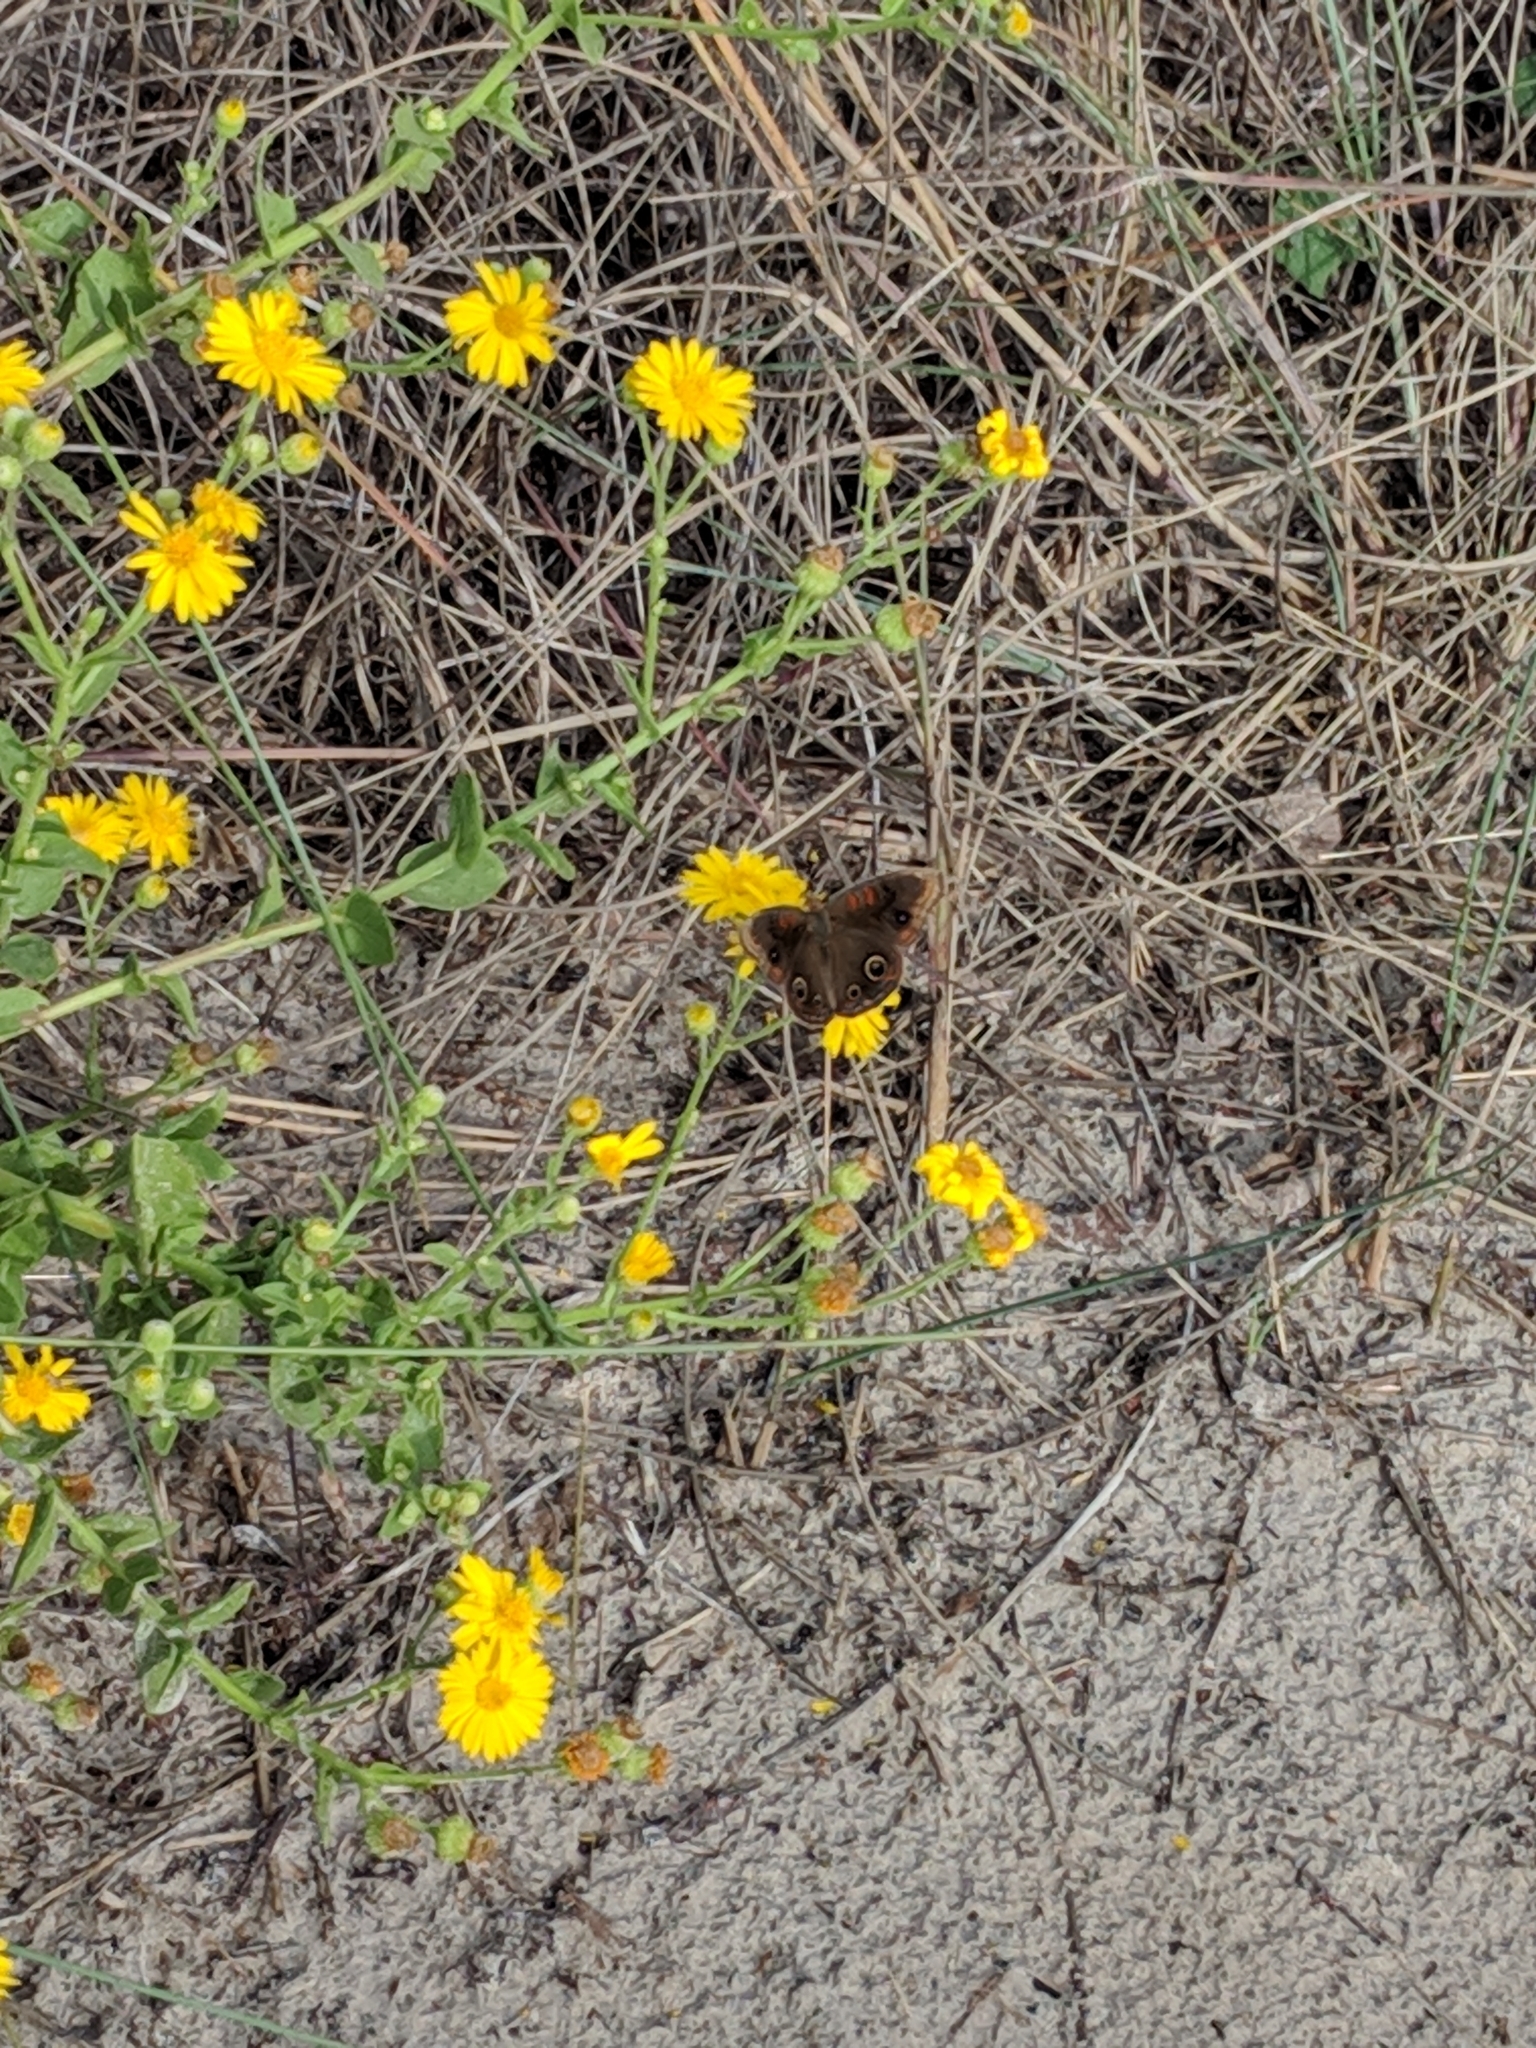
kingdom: Animalia
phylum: Arthropoda
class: Insecta
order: Lepidoptera
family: Nymphalidae
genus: Junonia
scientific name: Junonia stemosa
